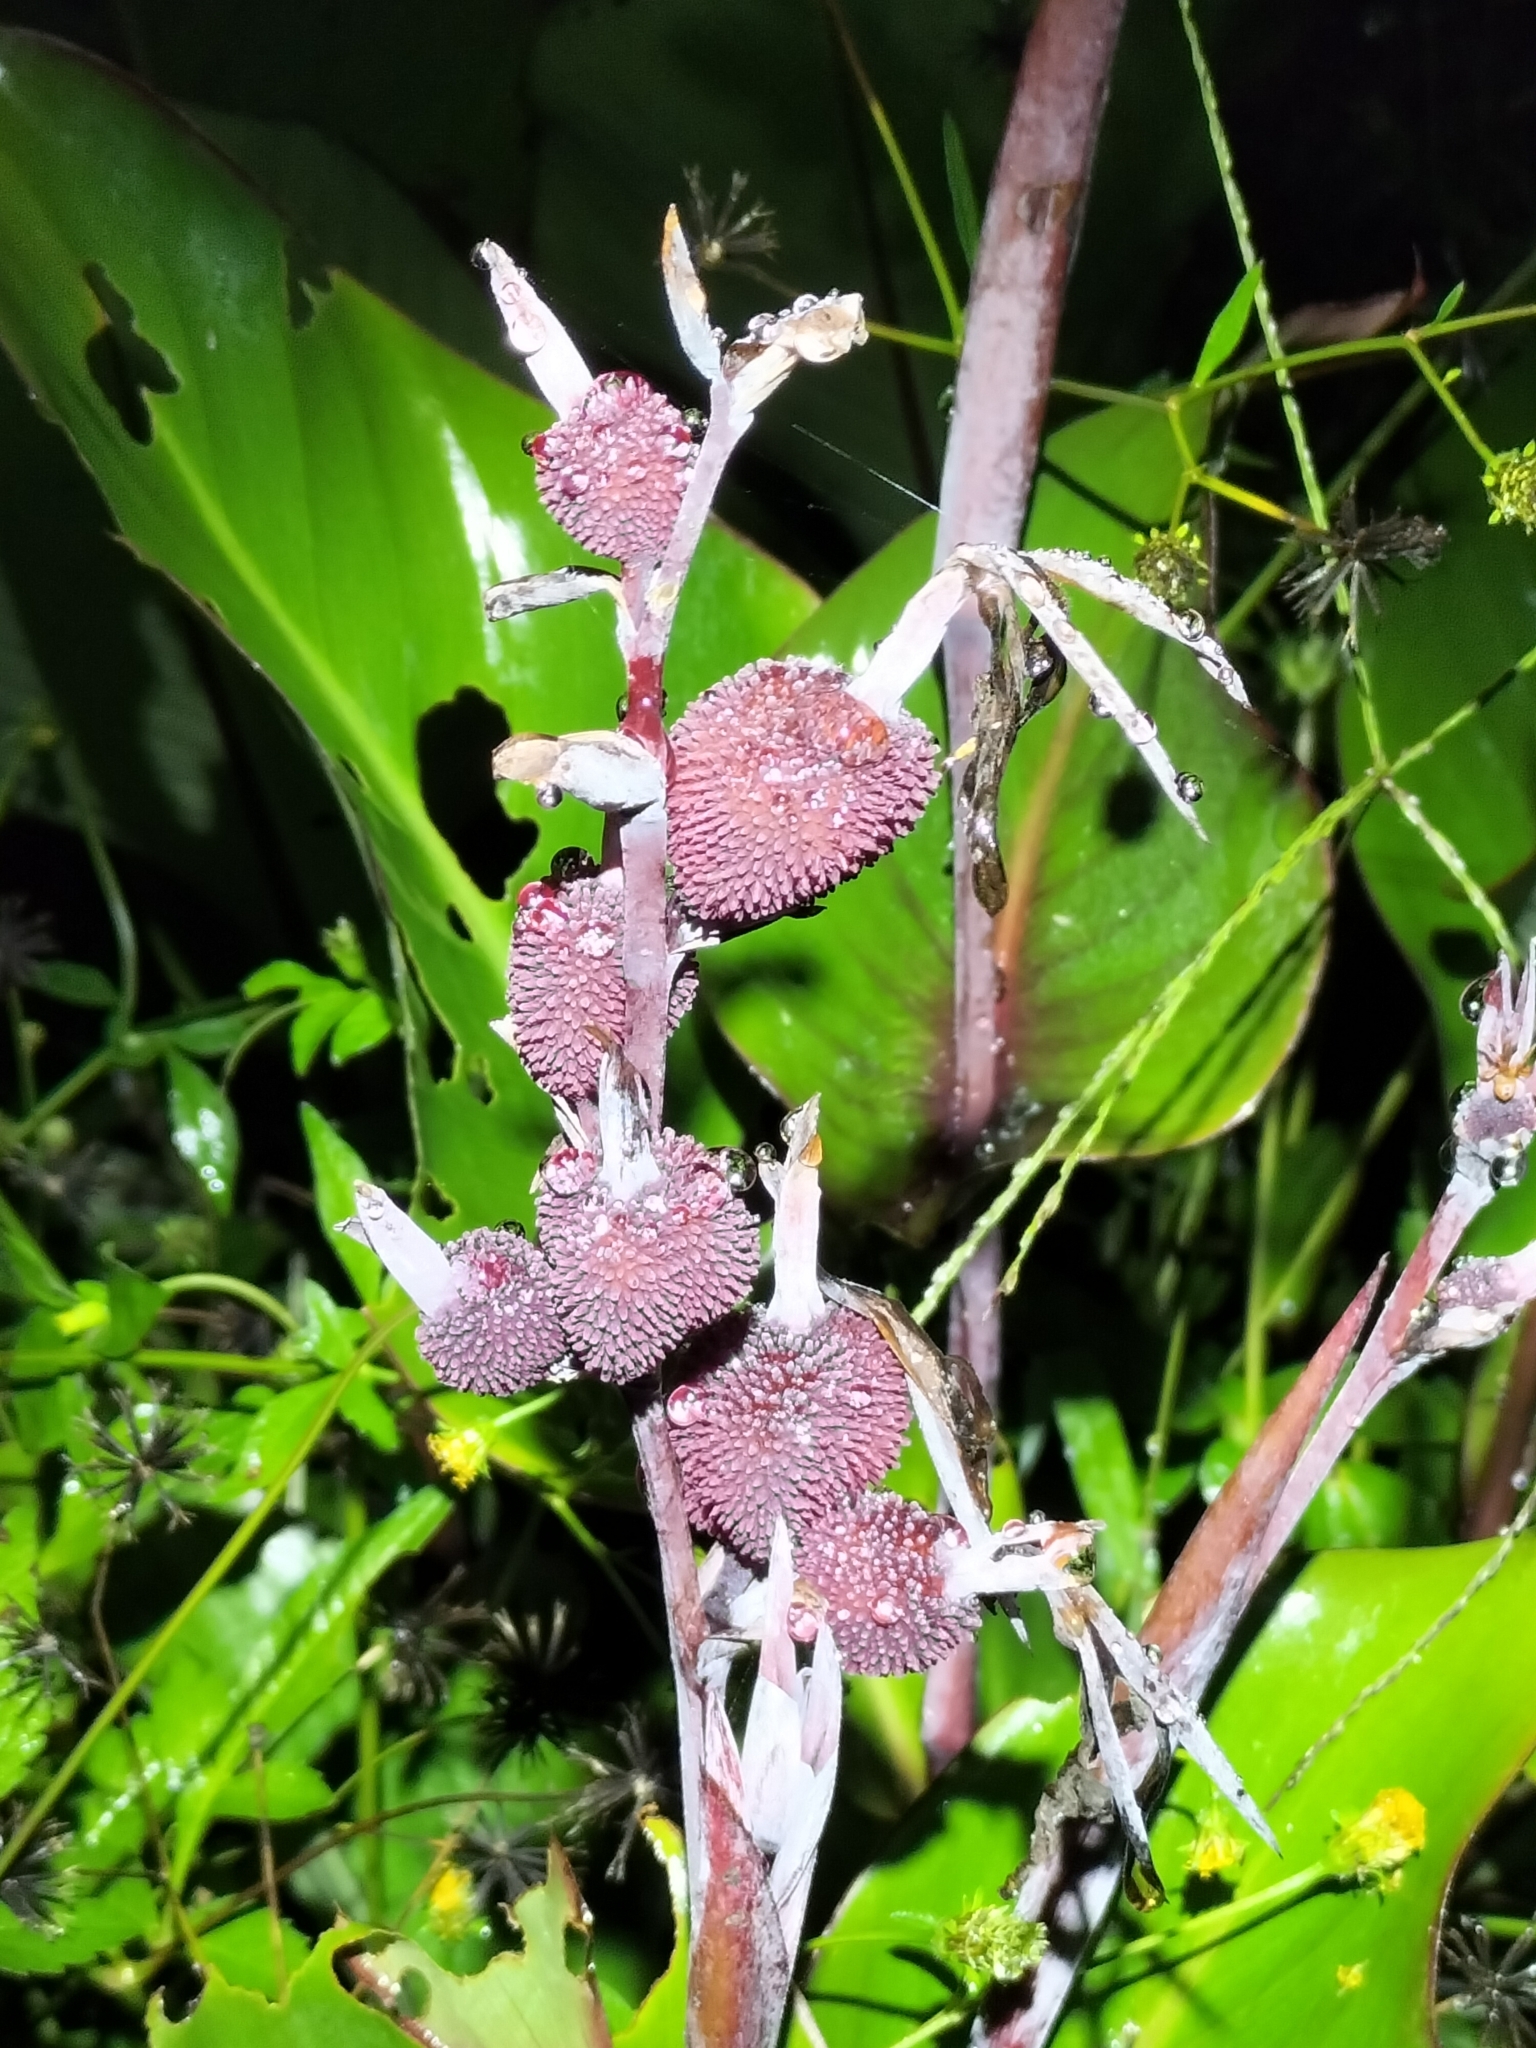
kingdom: Plantae
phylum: Tracheophyta
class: Liliopsida
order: Zingiberales
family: Cannaceae
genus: Canna
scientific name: Canna indica
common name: Indian shot
